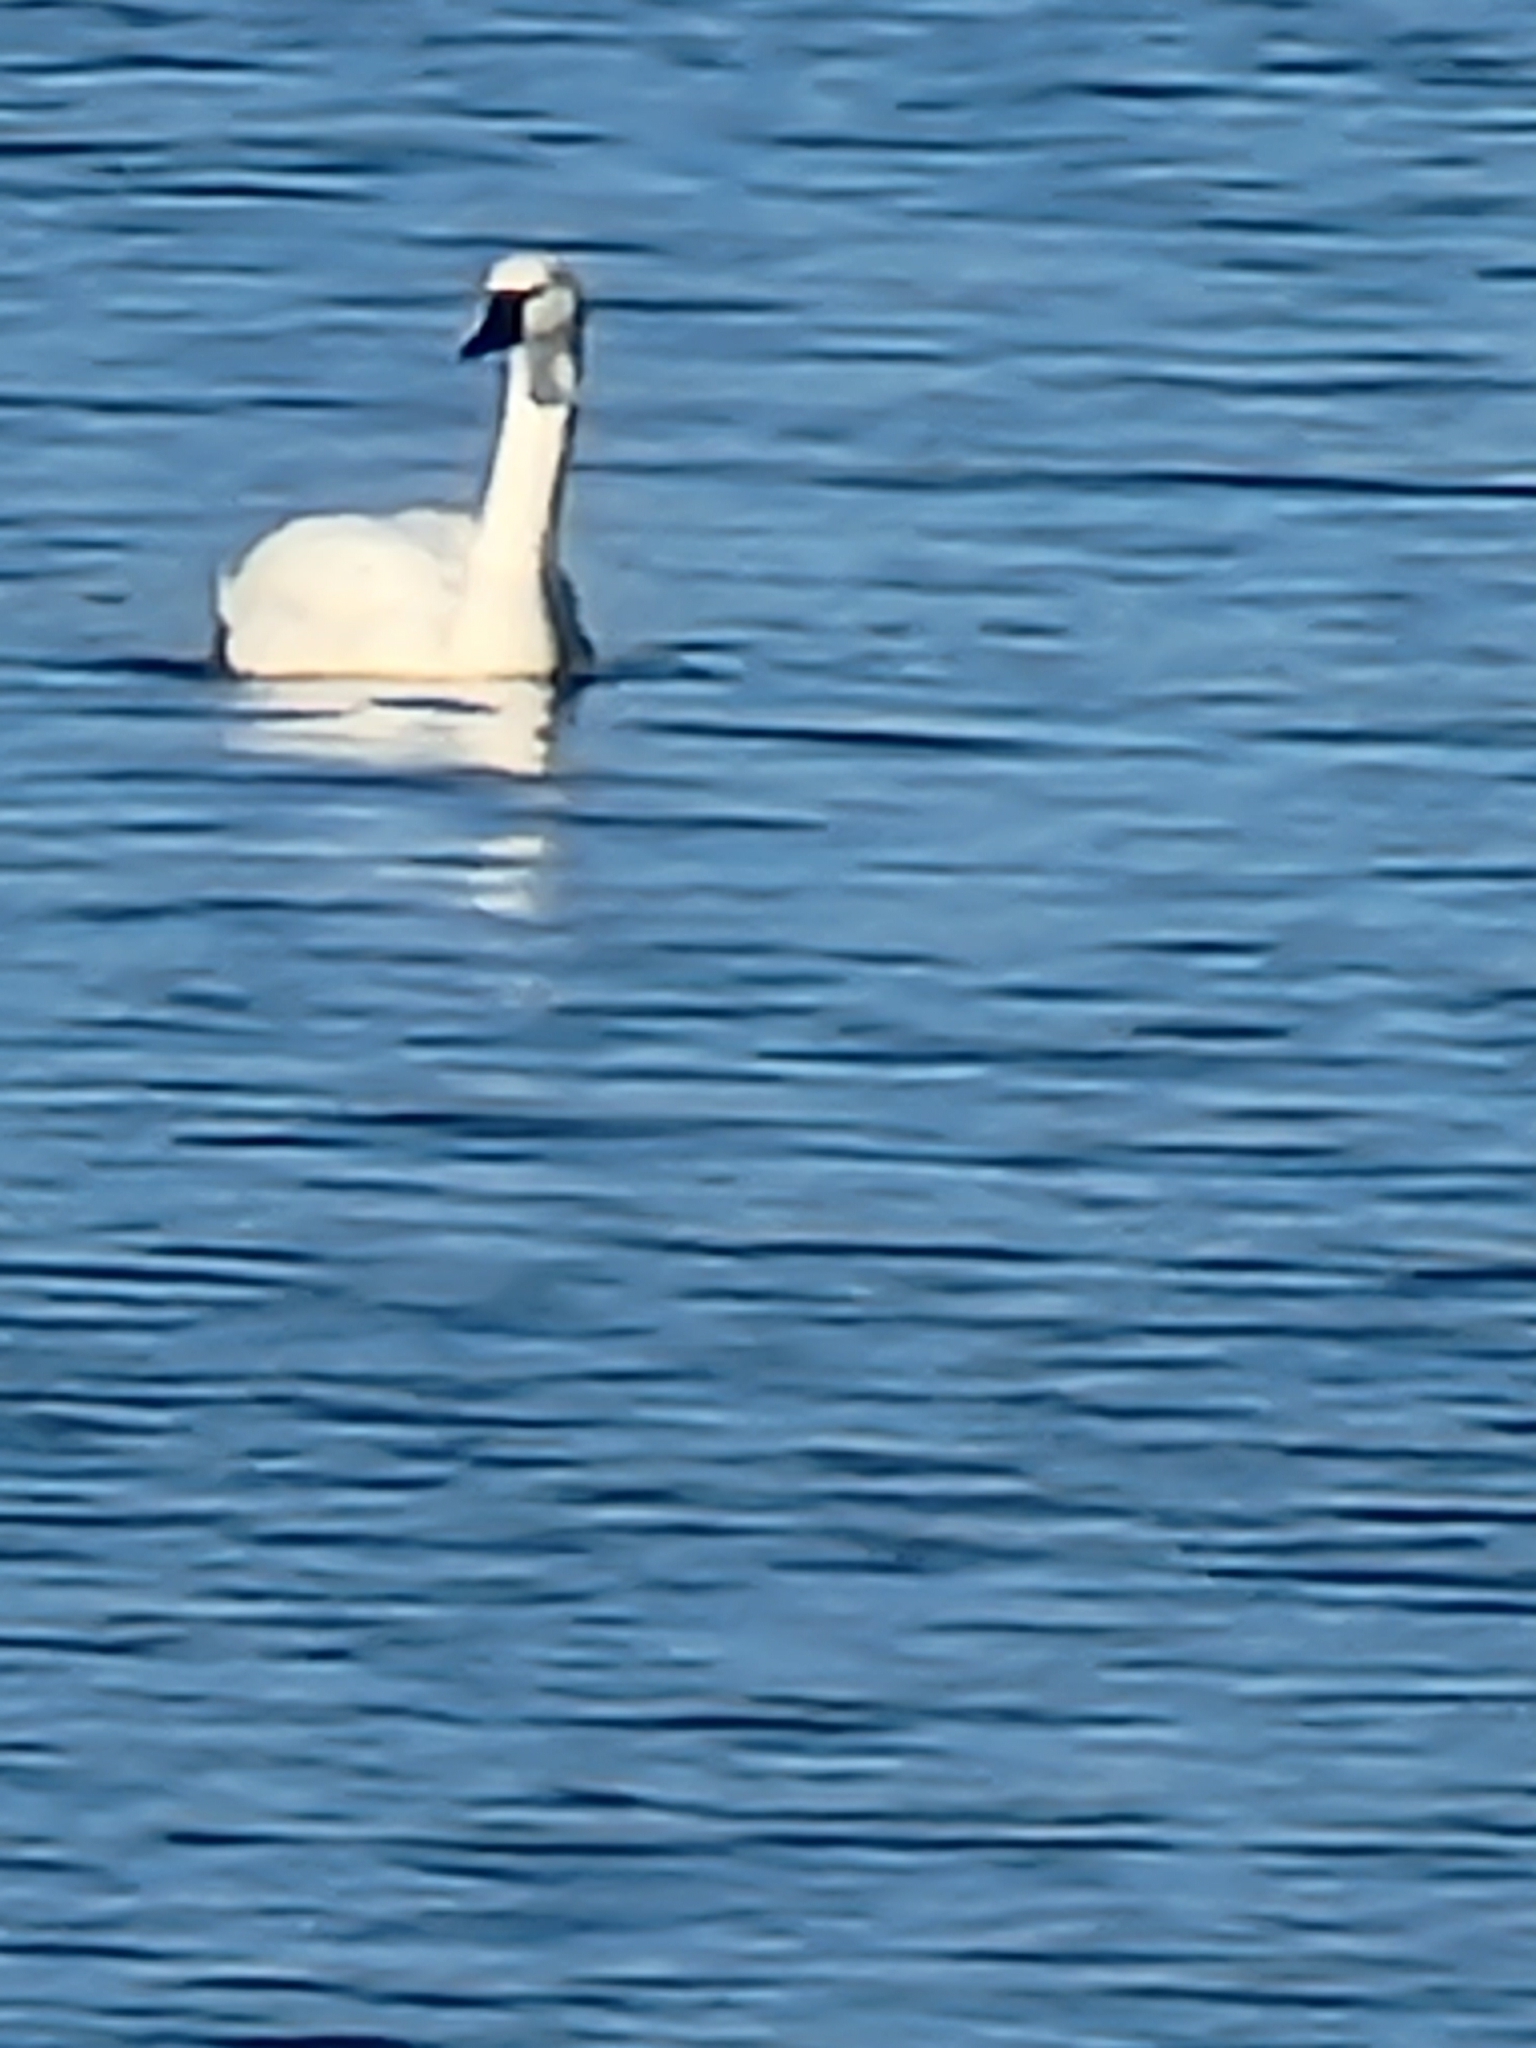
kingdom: Animalia
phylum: Chordata
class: Aves
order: Anseriformes
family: Anatidae
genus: Cygnus
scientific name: Cygnus columbianus
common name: Tundra swan
